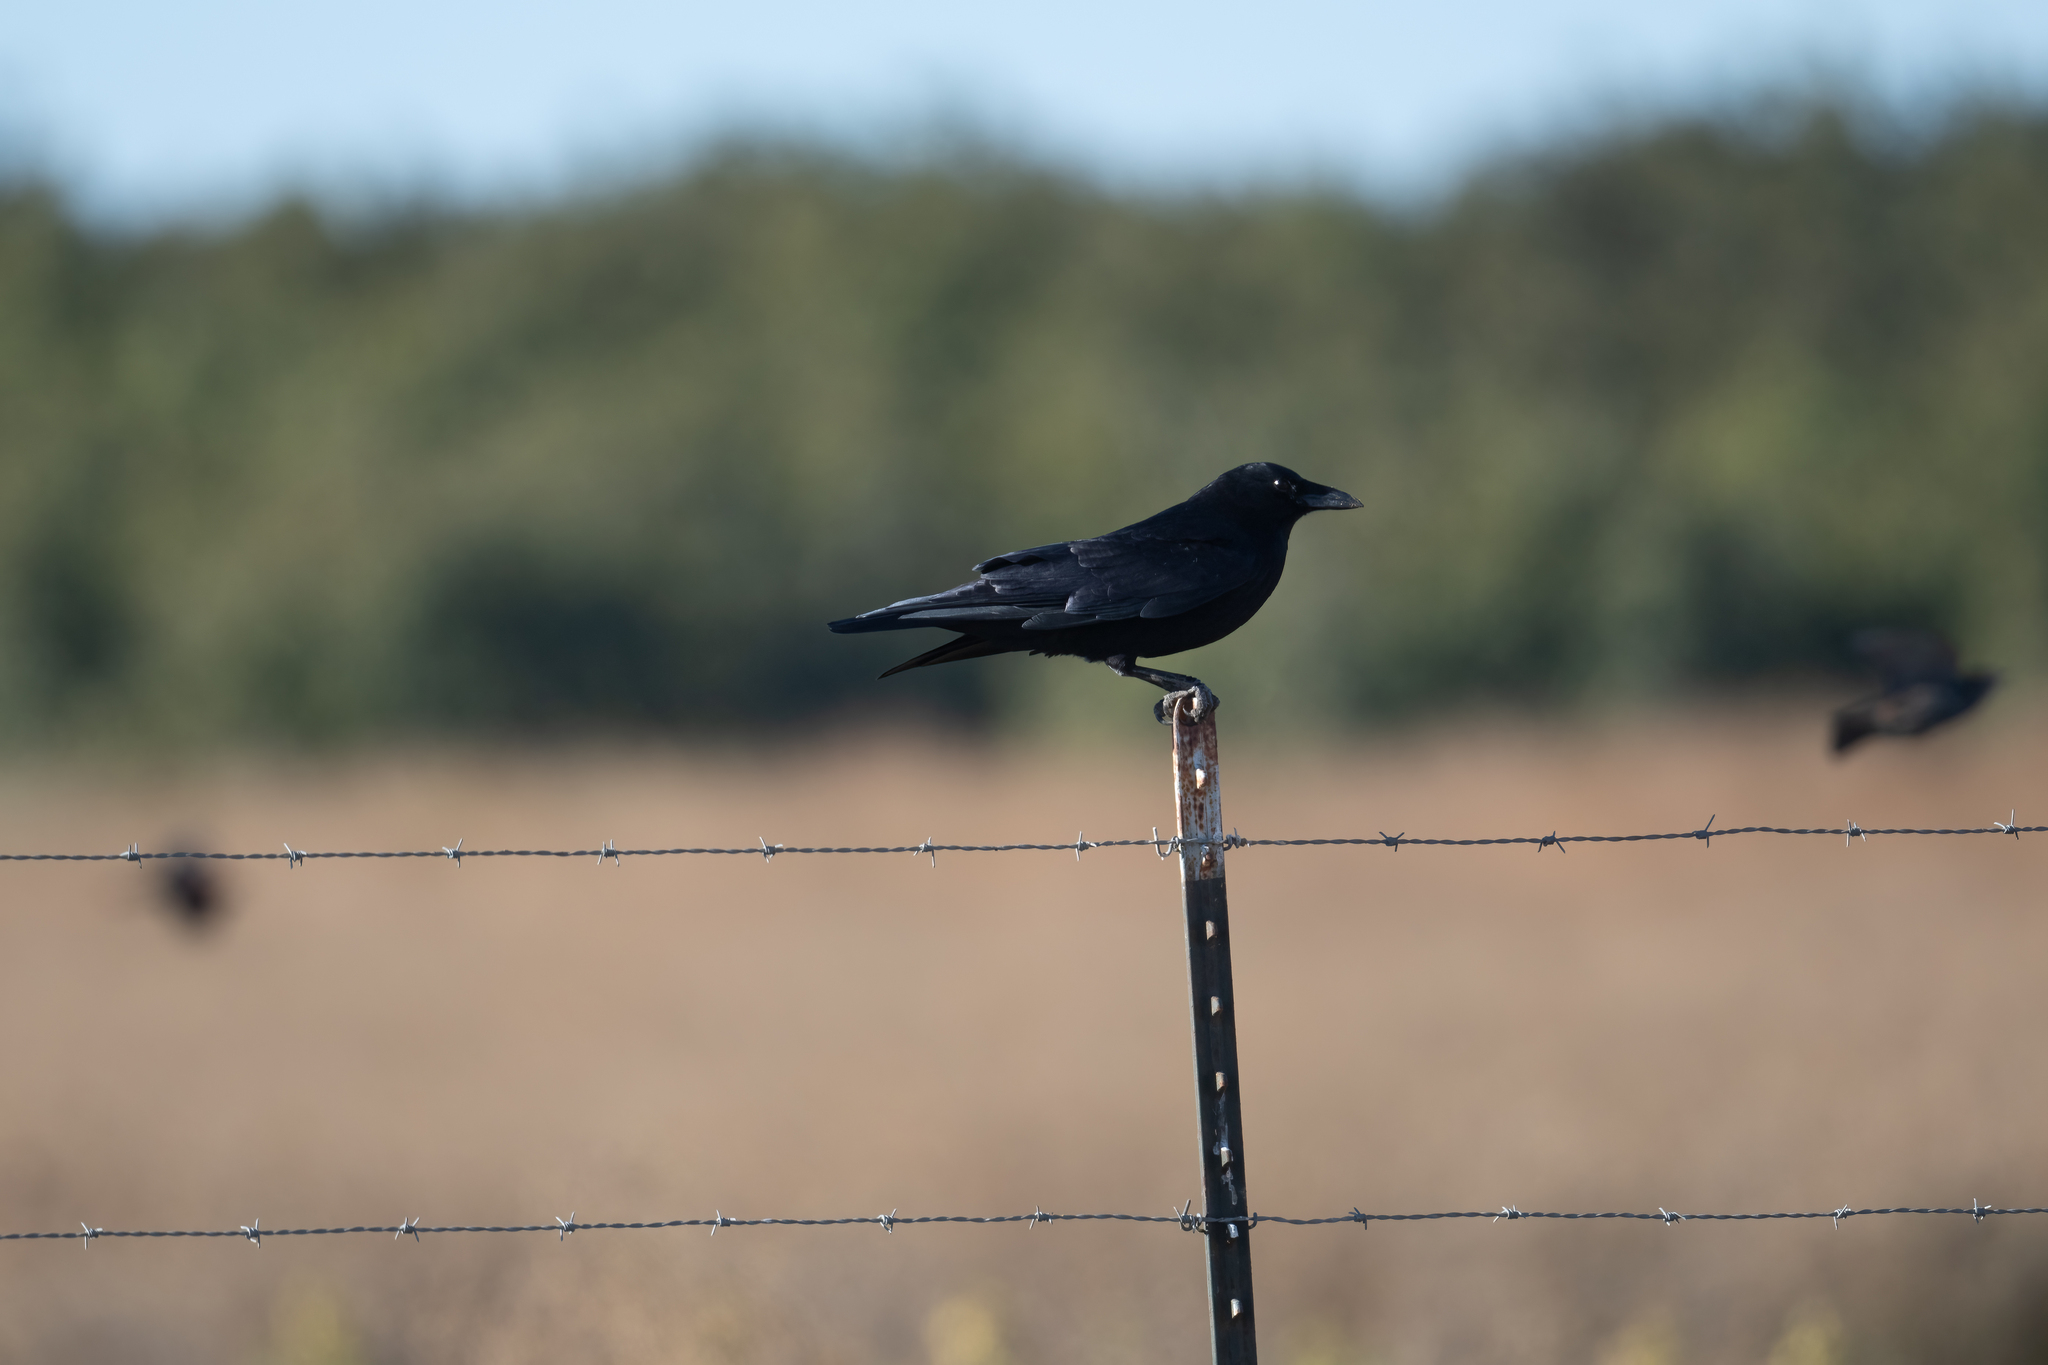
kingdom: Animalia
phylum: Chordata
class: Aves
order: Passeriformes
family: Corvidae
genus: Corvus
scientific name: Corvus brachyrhynchos
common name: American crow
